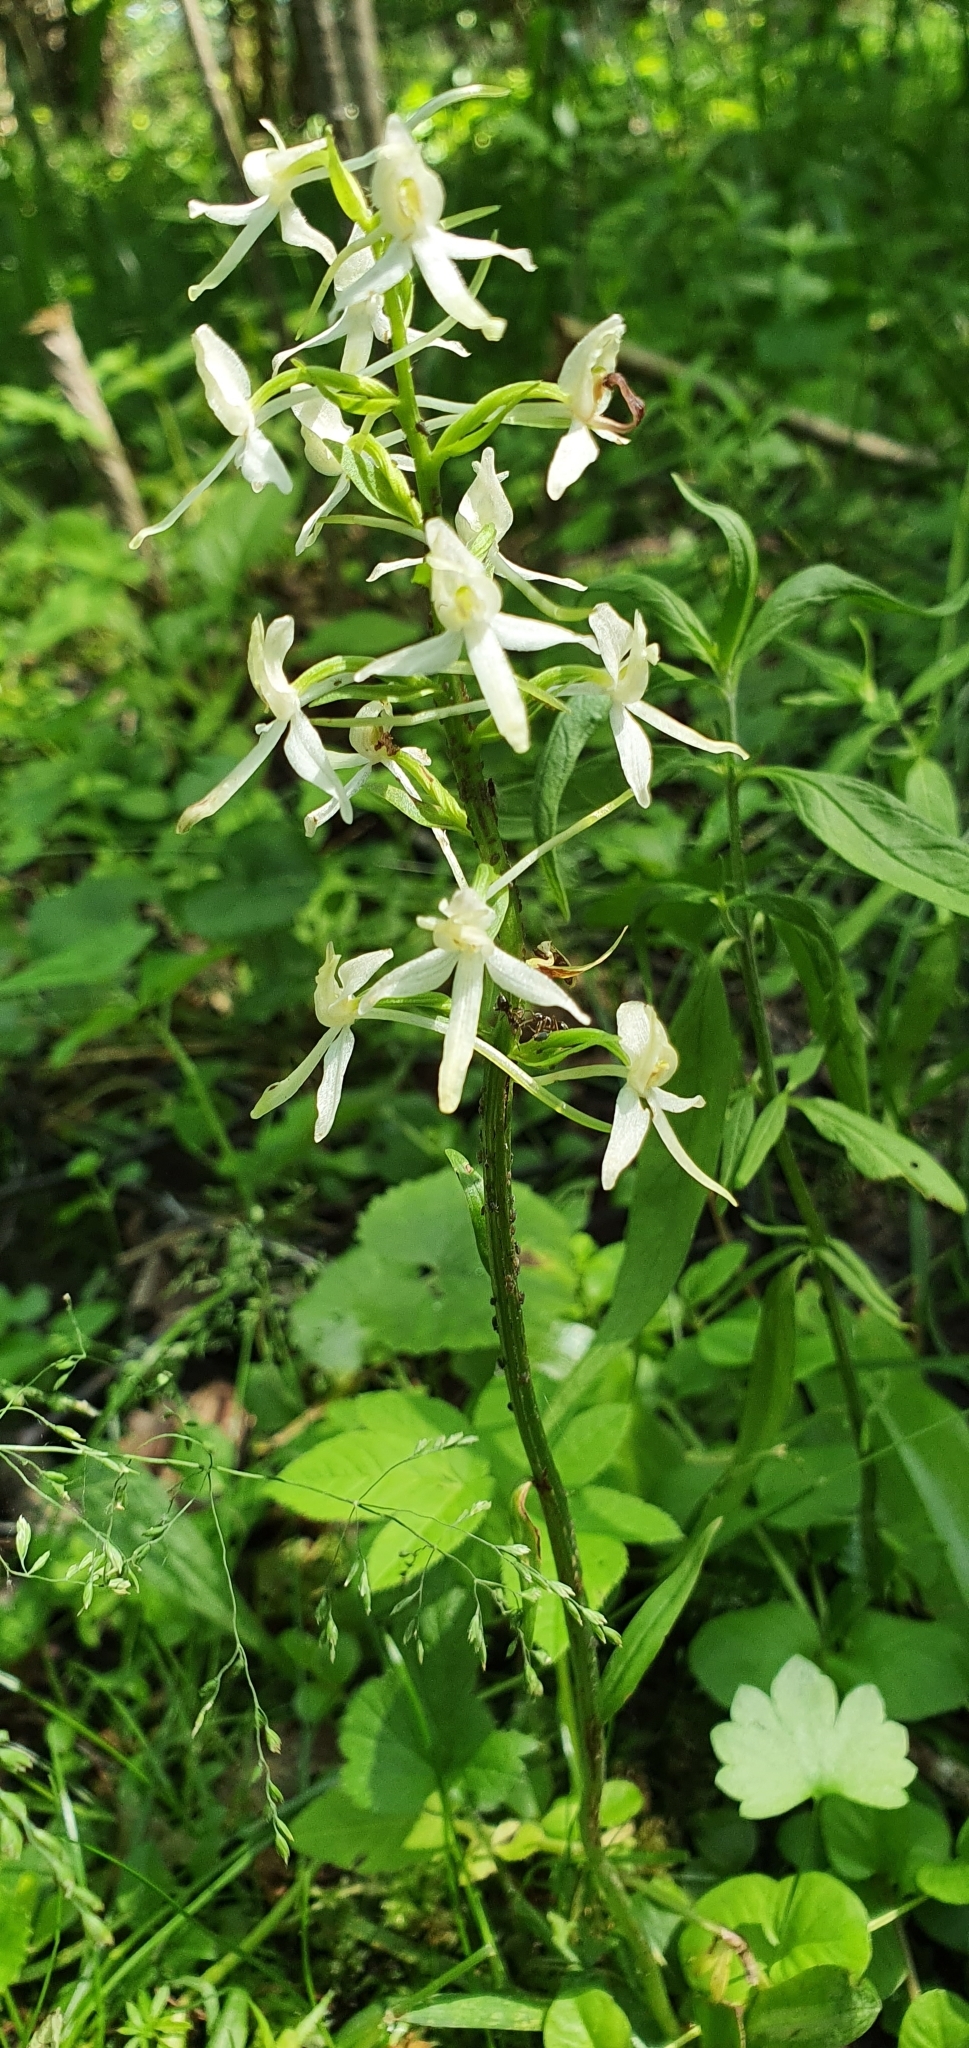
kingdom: Plantae
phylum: Tracheophyta
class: Liliopsida
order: Asparagales
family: Orchidaceae
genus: Platanthera
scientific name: Platanthera bifolia
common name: Lesser butterfly-orchid
